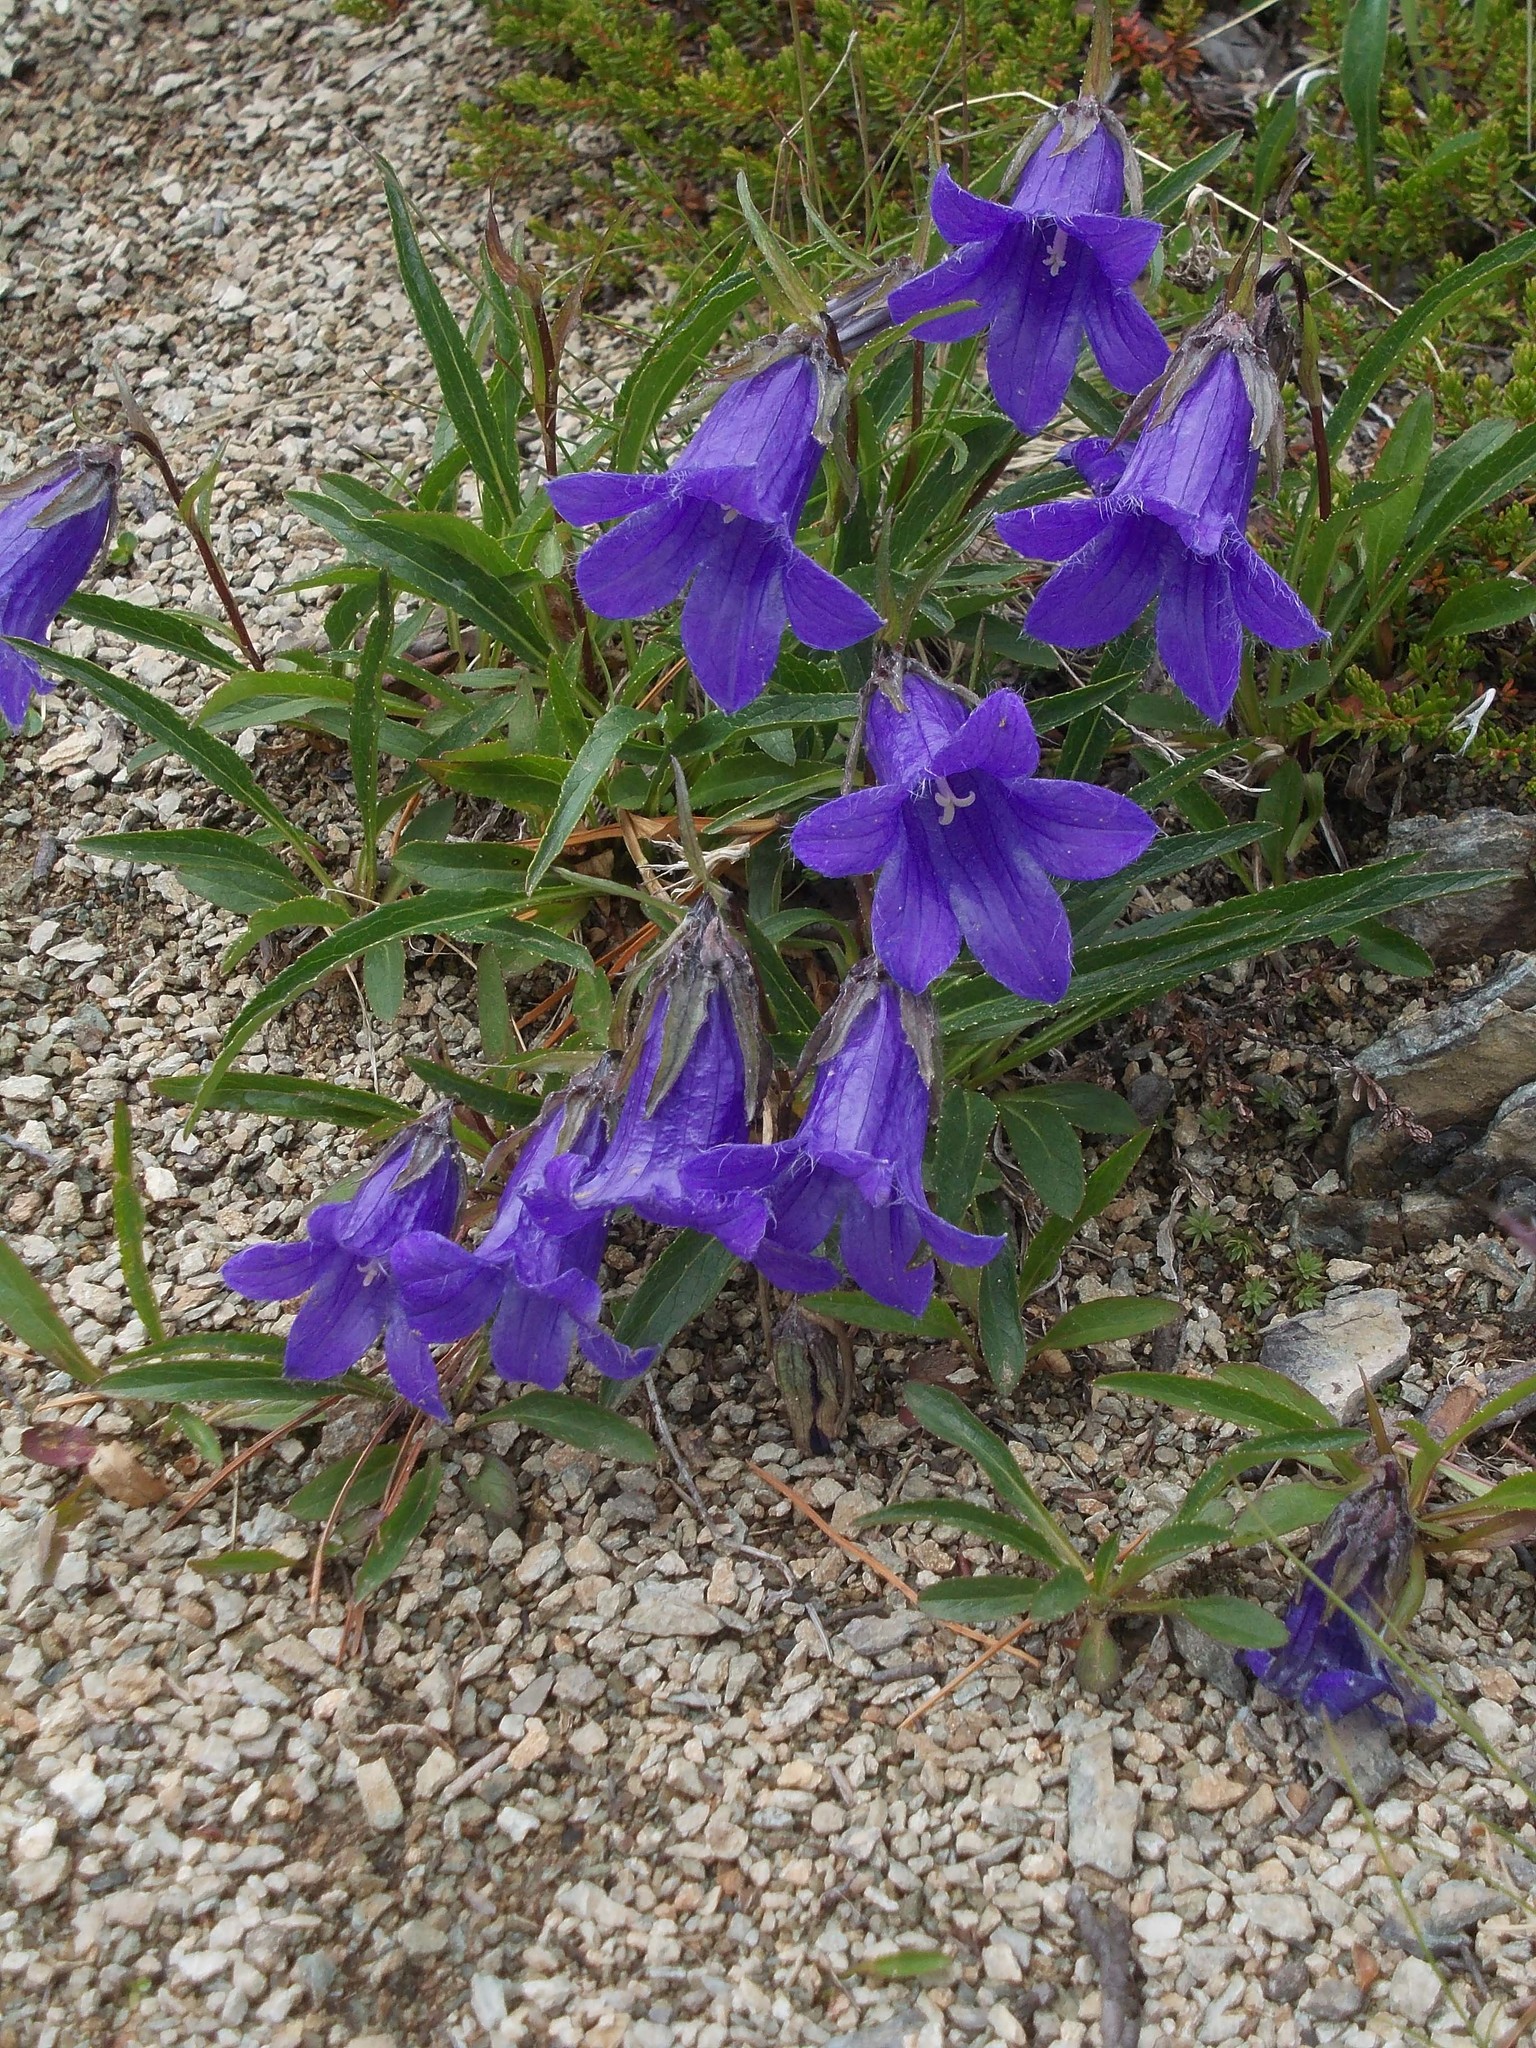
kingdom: Plantae
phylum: Tracheophyta
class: Magnoliopsida
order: Asterales
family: Campanulaceae
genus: Campanula
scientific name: Campanula dasyantha
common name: Hairyflower bellflower
